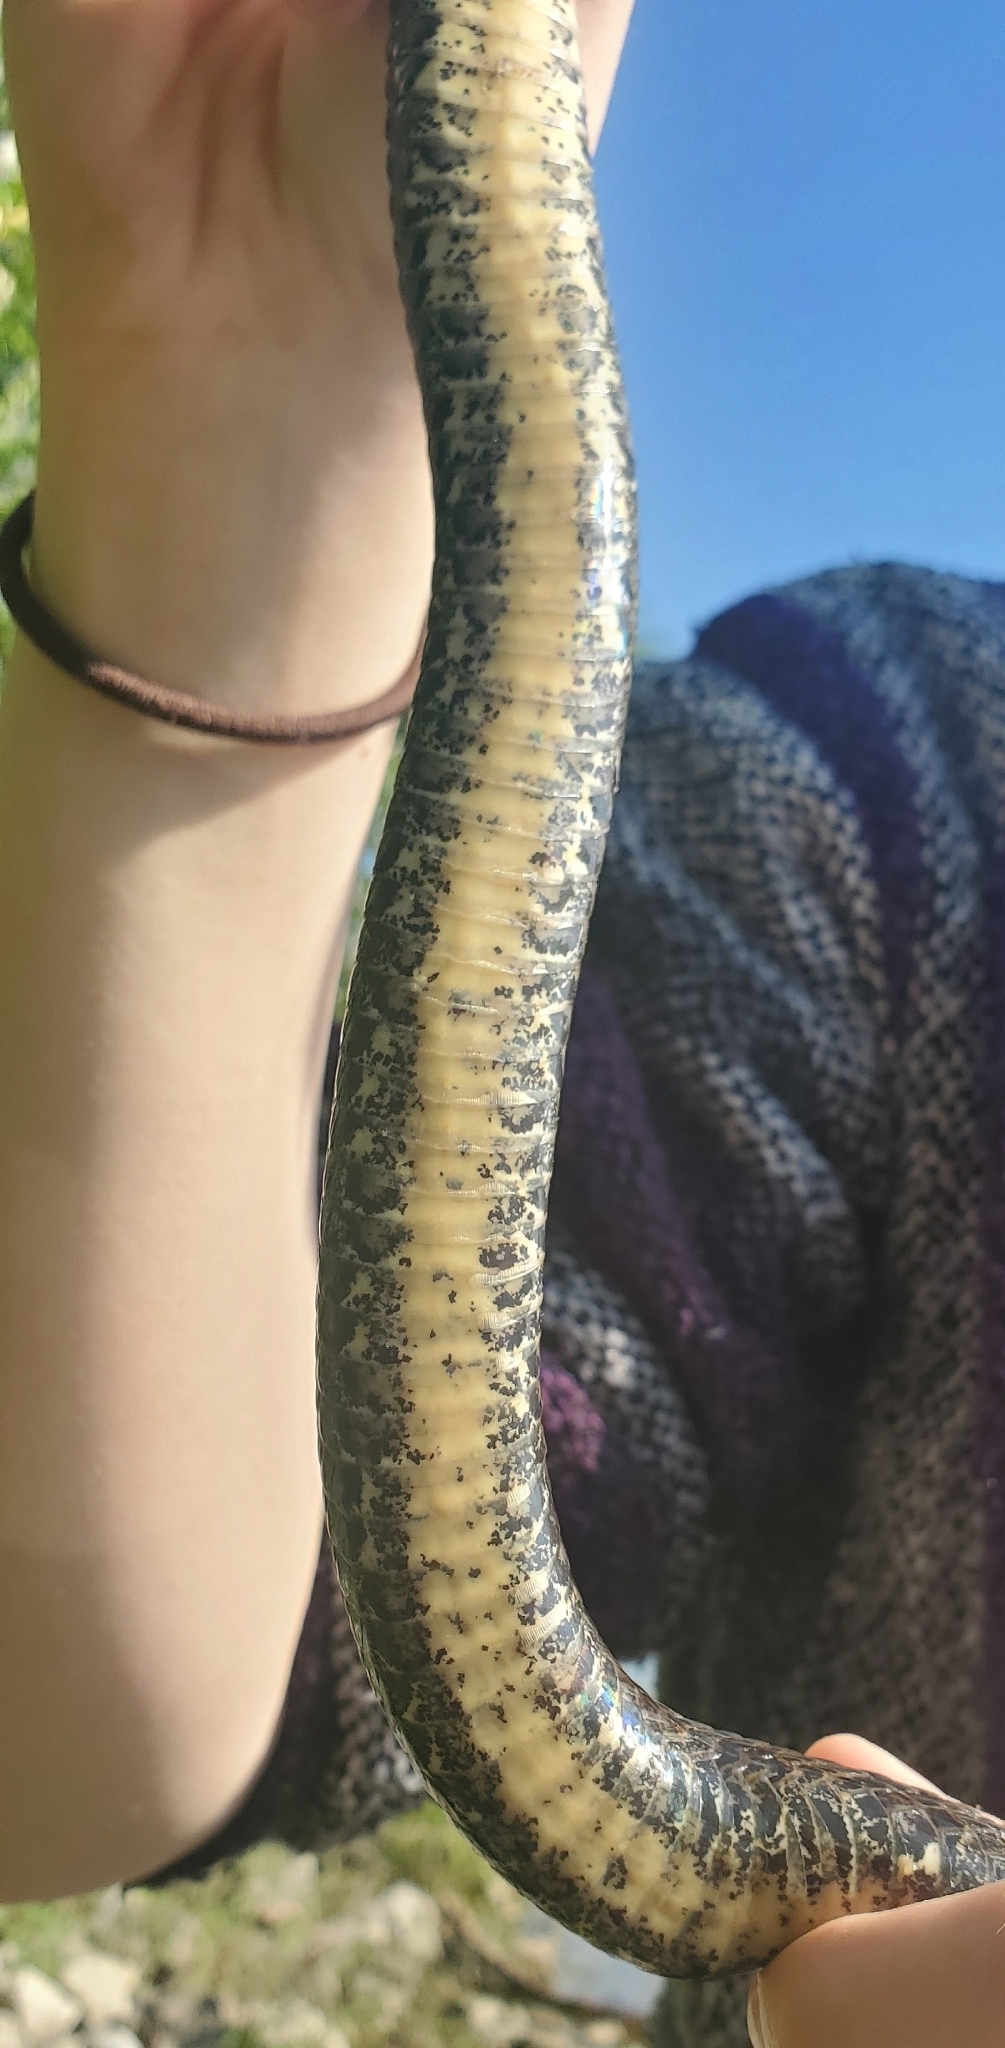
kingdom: Animalia
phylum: Chordata
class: Squamata
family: Colubridae
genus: Nerodia
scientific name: Nerodia sipedon
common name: Northern water snake
